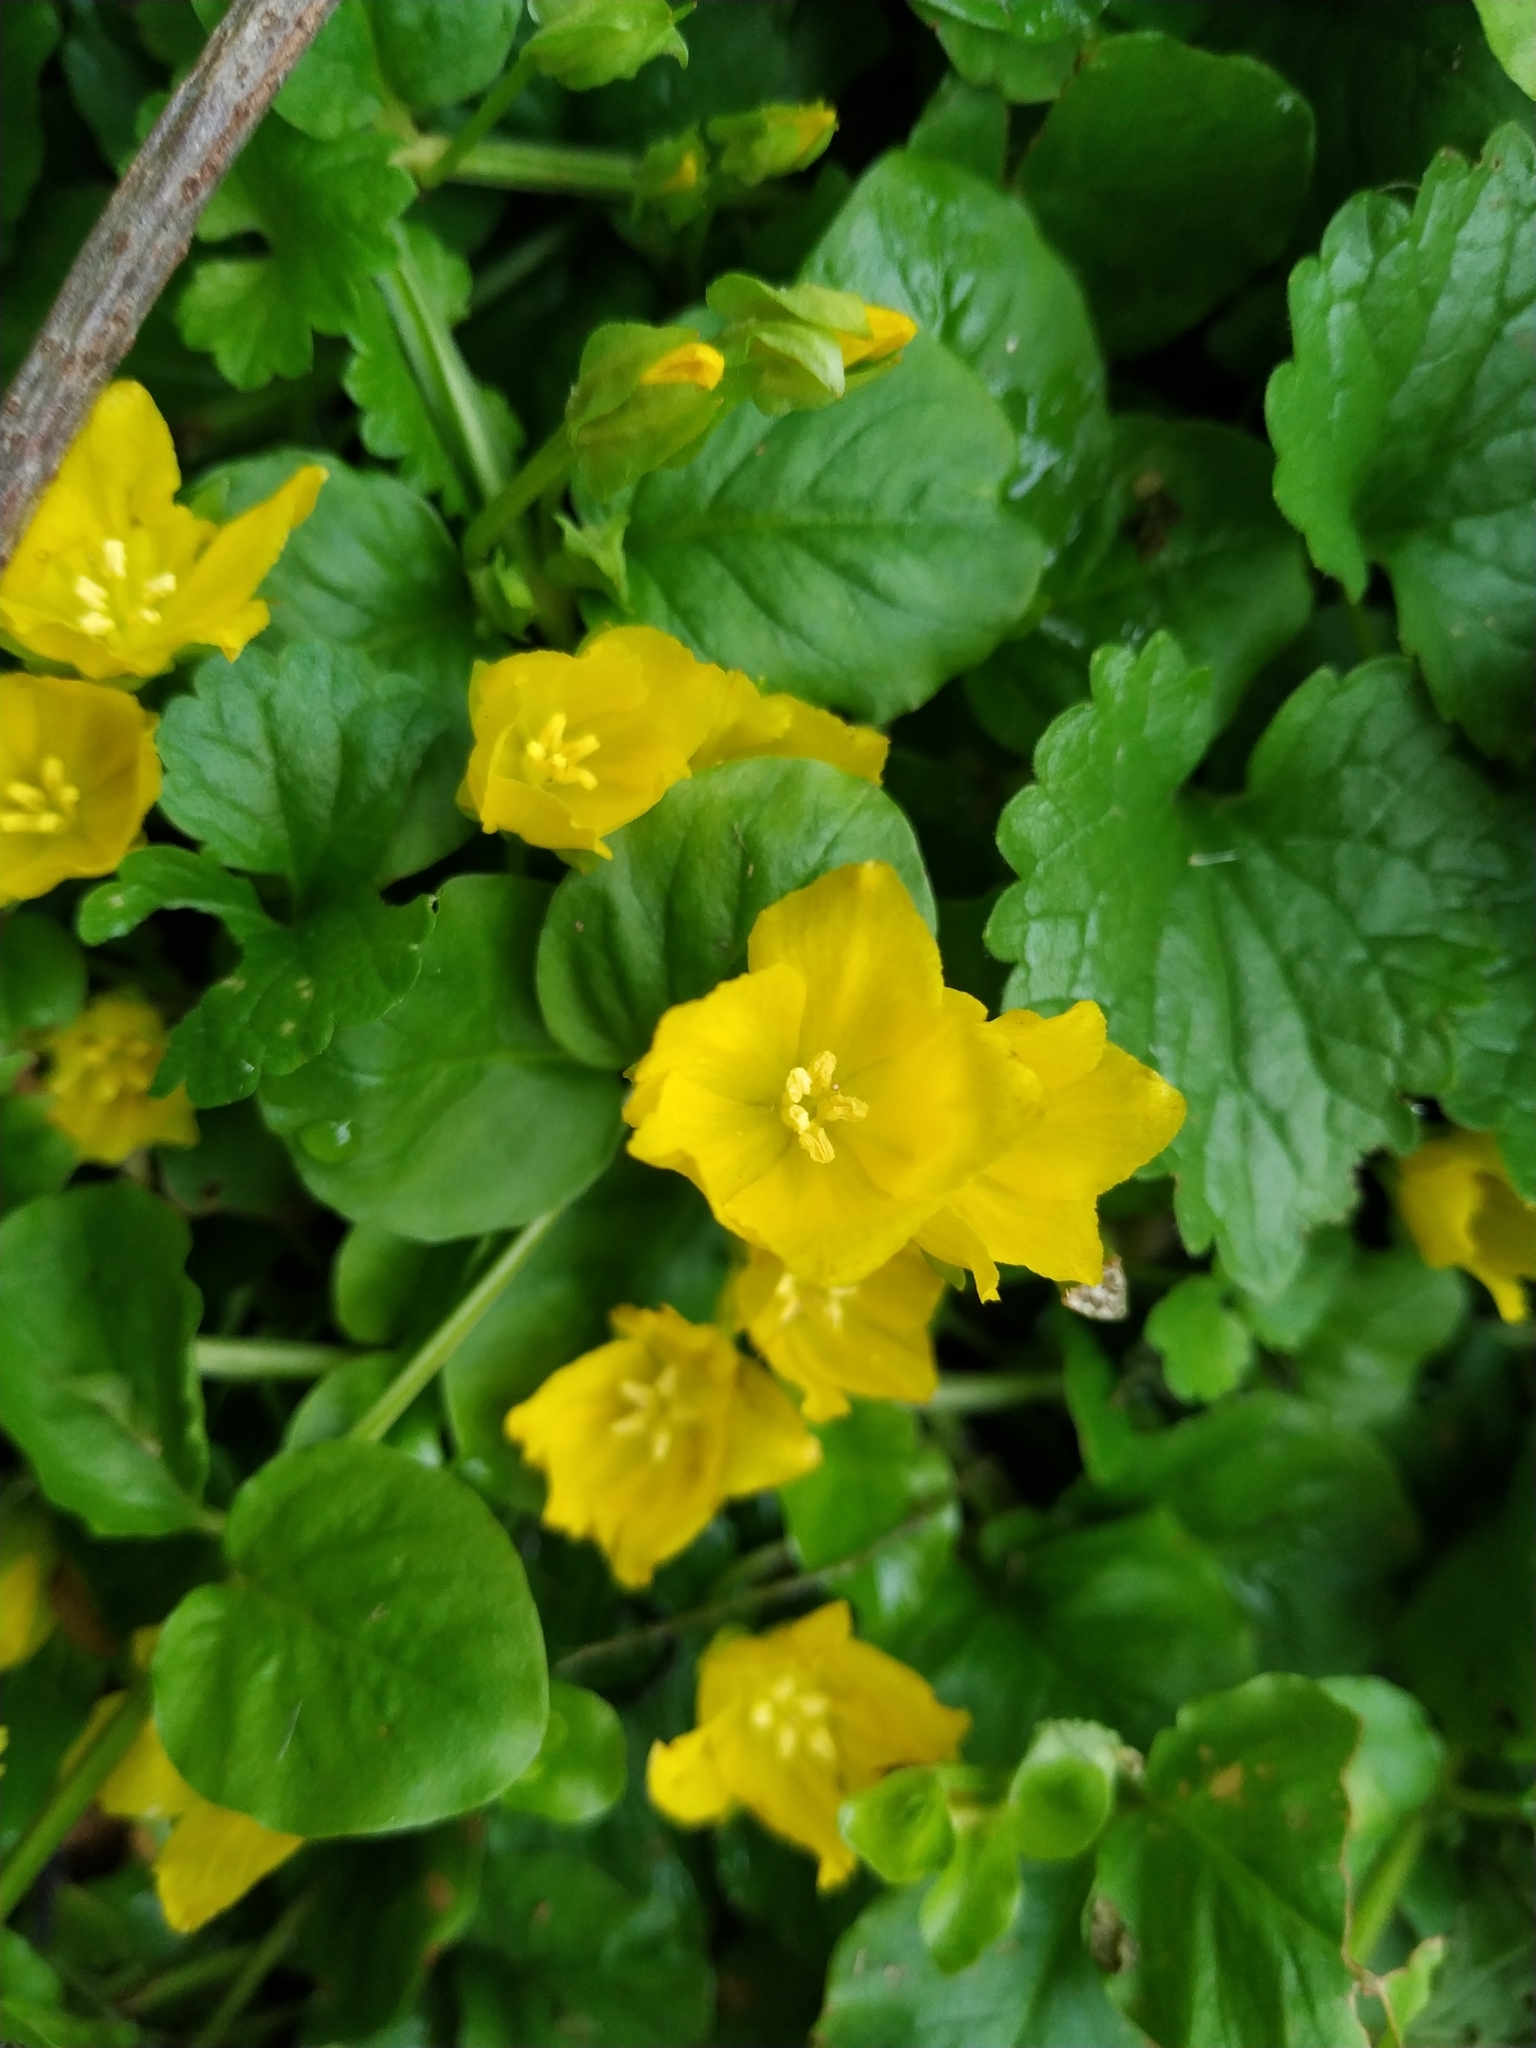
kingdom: Plantae
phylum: Tracheophyta
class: Magnoliopsida
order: Ericales
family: Primulaceae
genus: Lysimachia
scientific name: Lysimachia nummularia
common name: Moneywort
